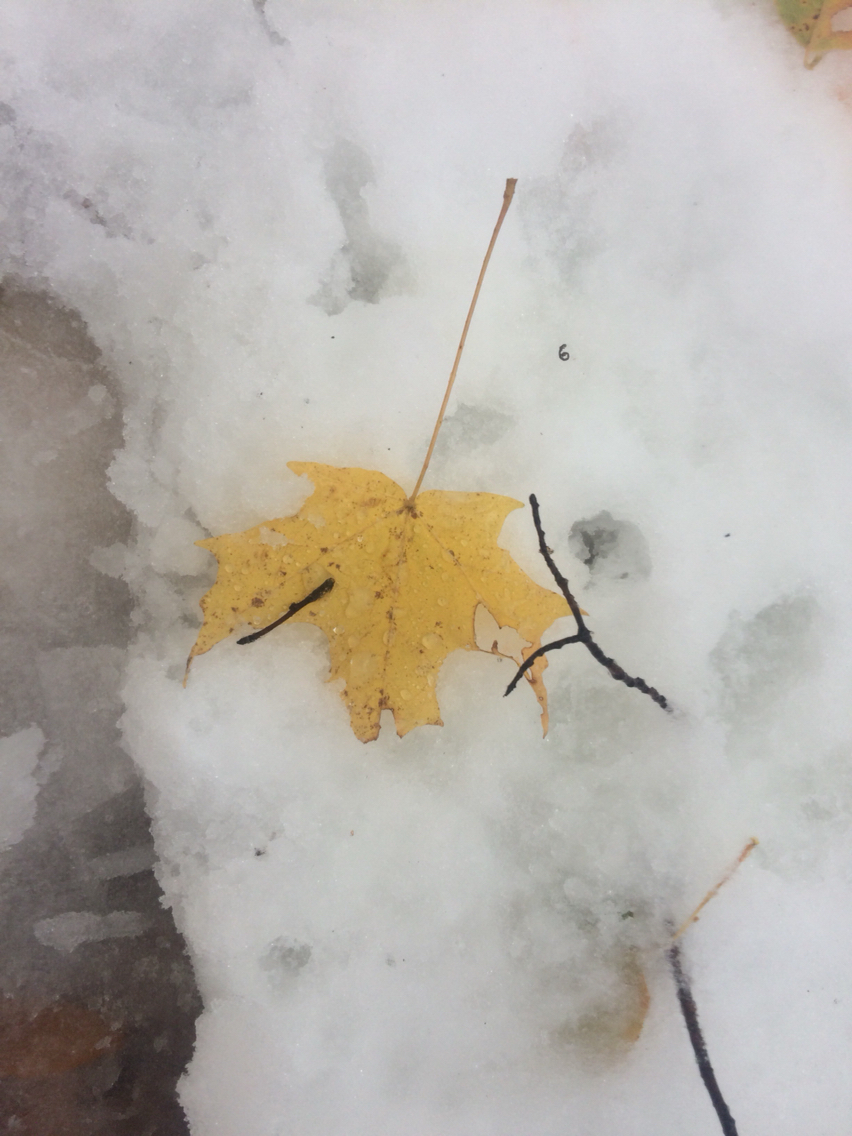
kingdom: Plantae
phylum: Tracheophyta
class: Magnoliopsida
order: Sapindales
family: Sapindaceae
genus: Acer
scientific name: Acer saccharum
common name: Sugar maple
